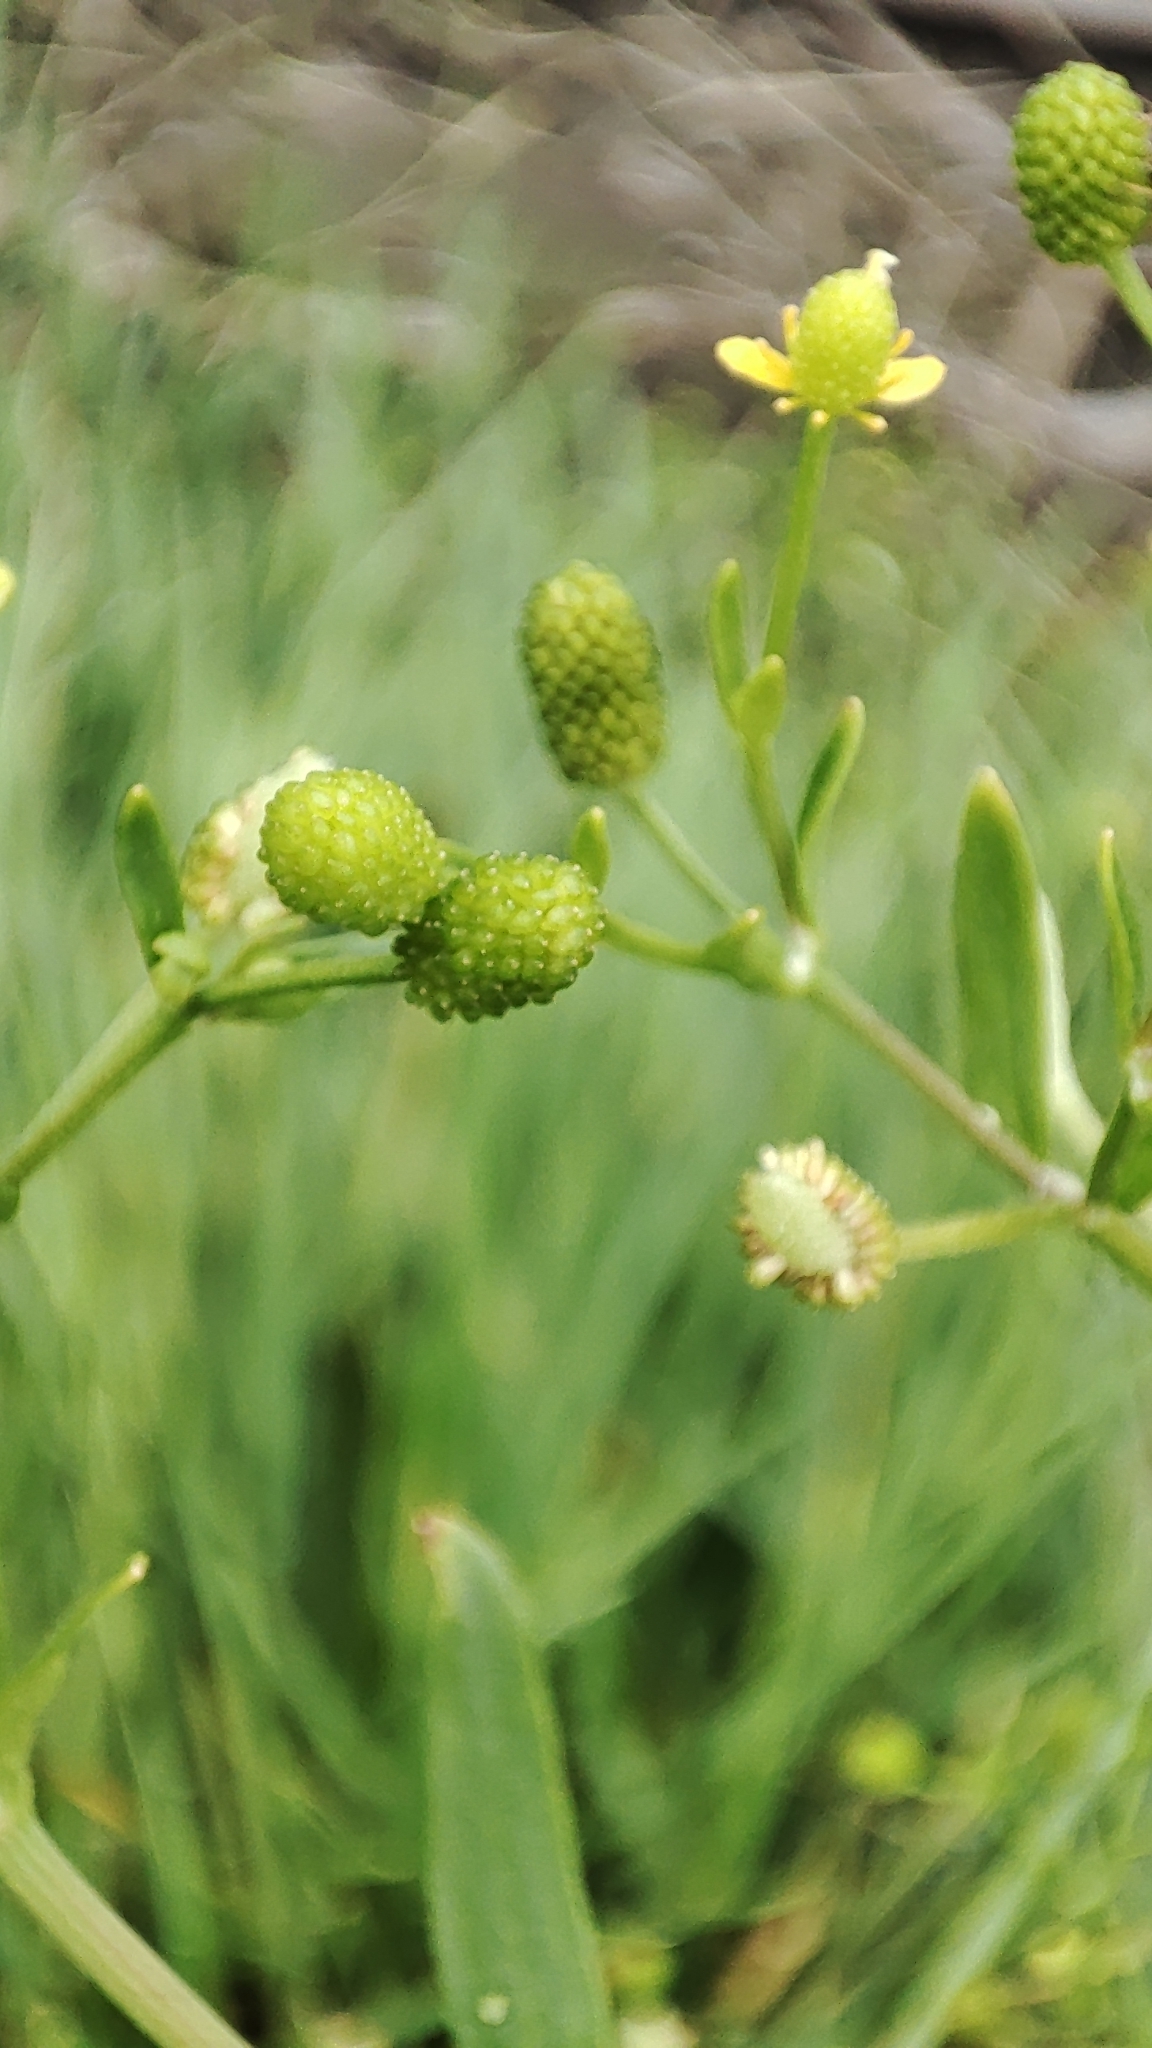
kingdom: Plantae
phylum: Tracheophyta
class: Magnoliopsida
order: Ranunculales
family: Ranunculaceae
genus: Ranunculus
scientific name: Ranunculus sceleratus
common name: Celery-leaved buttercup
